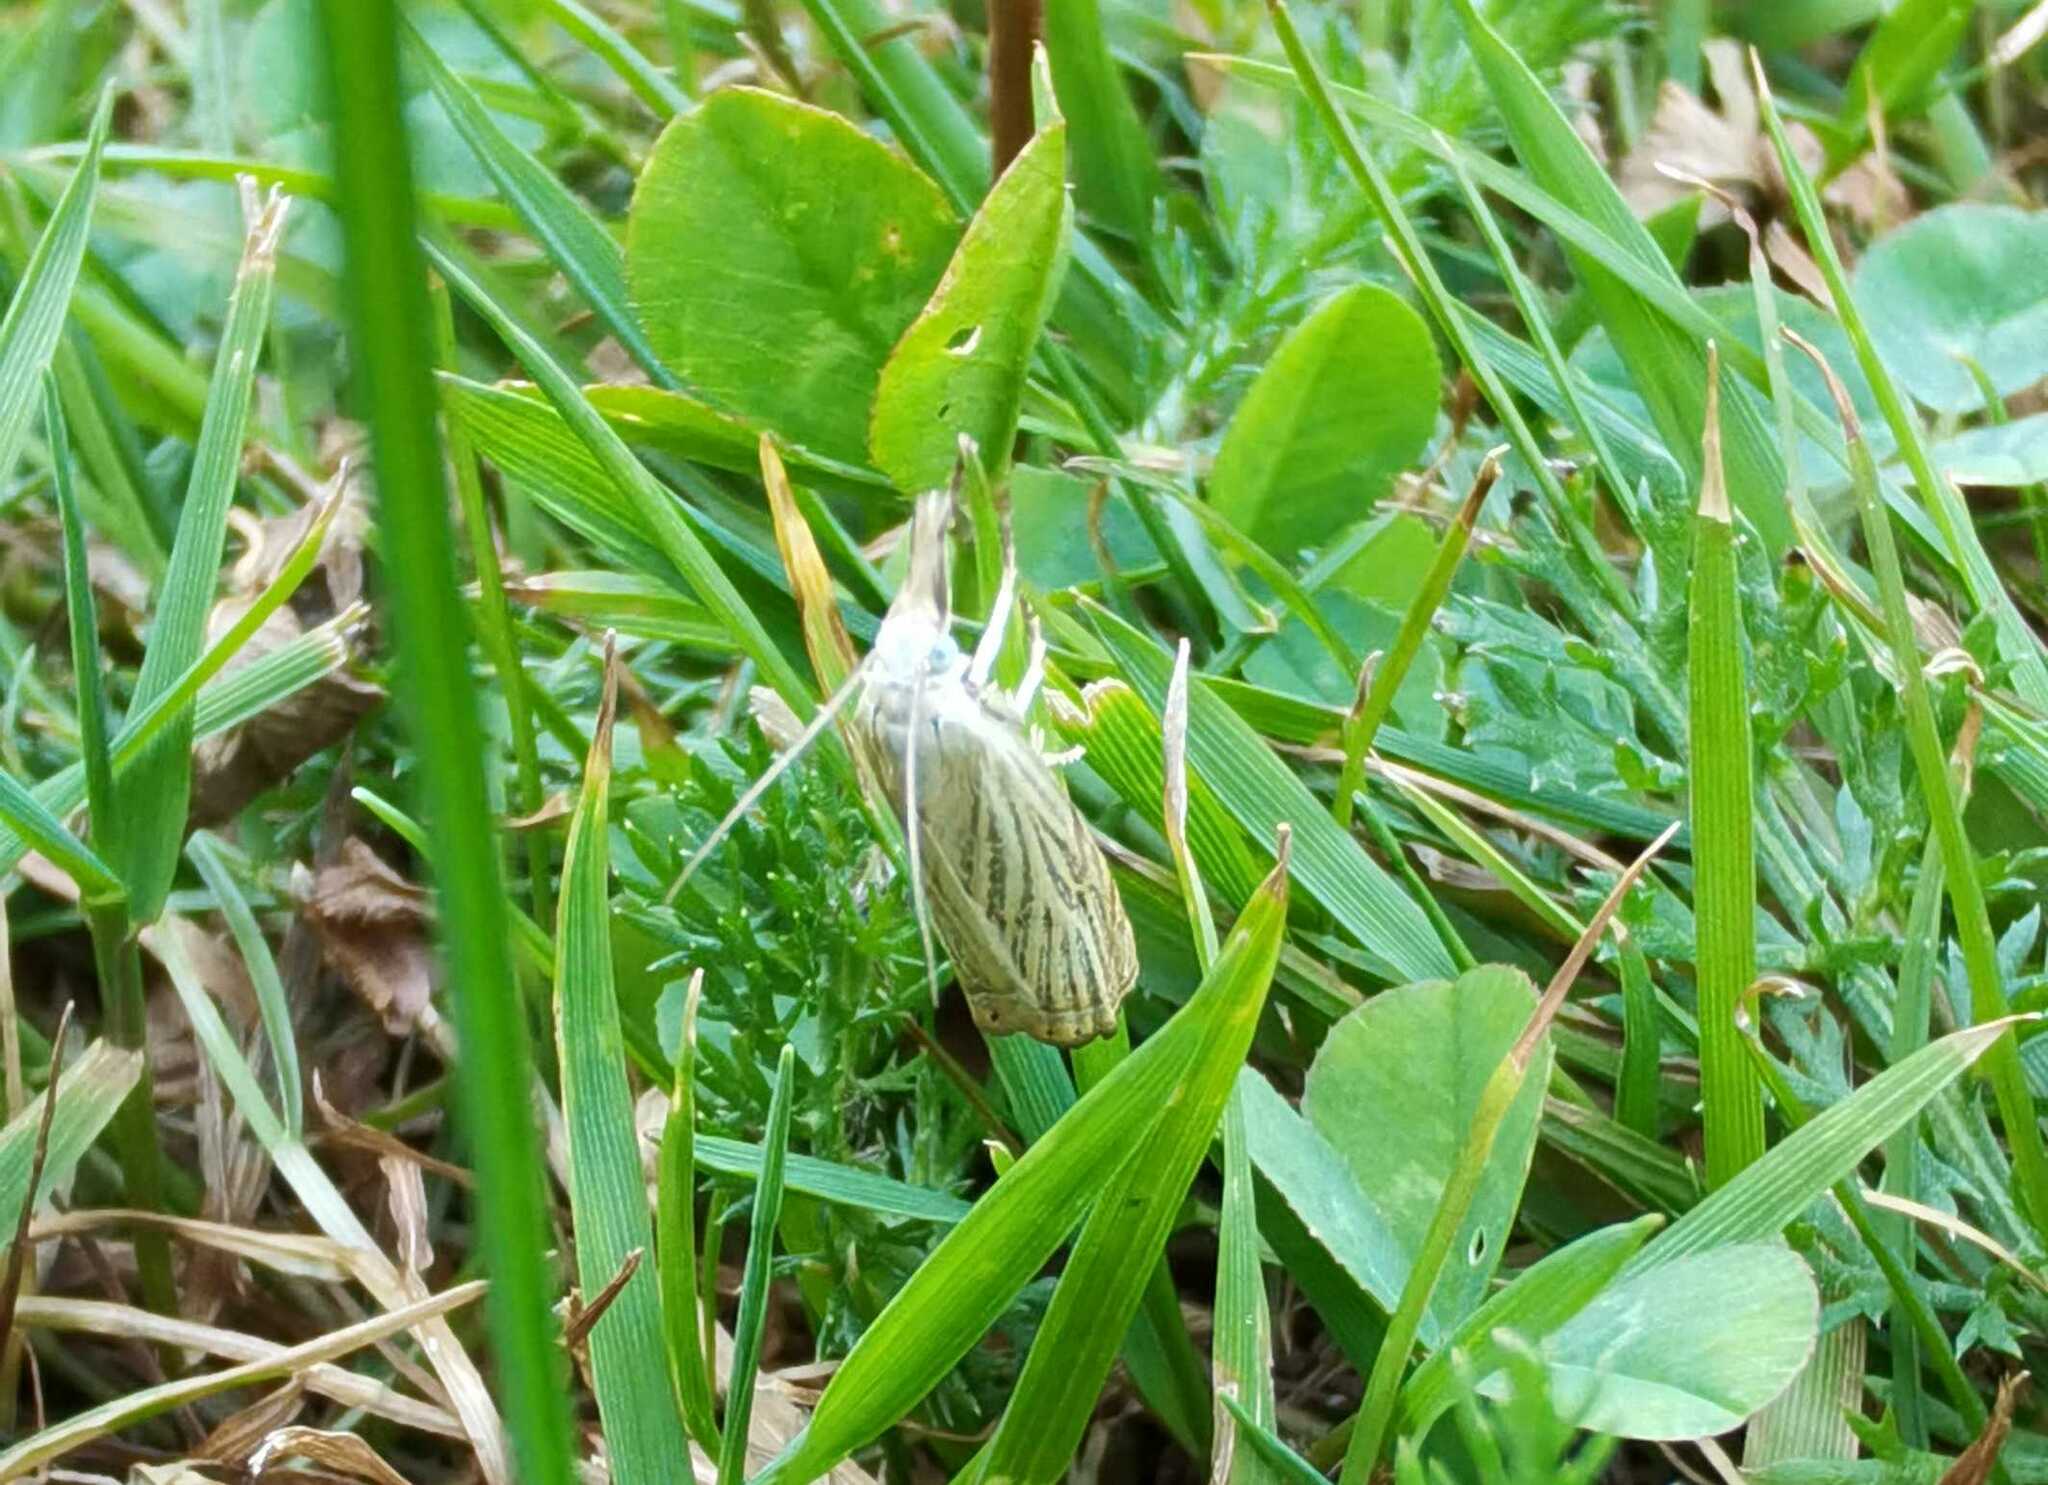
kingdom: Animalia
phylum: Arthropoda
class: Insecta
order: Lepidoptera
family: Crambidae
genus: Chrysoteuchia
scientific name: Chrysoteuchia culmella
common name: Garden grass-veneer
